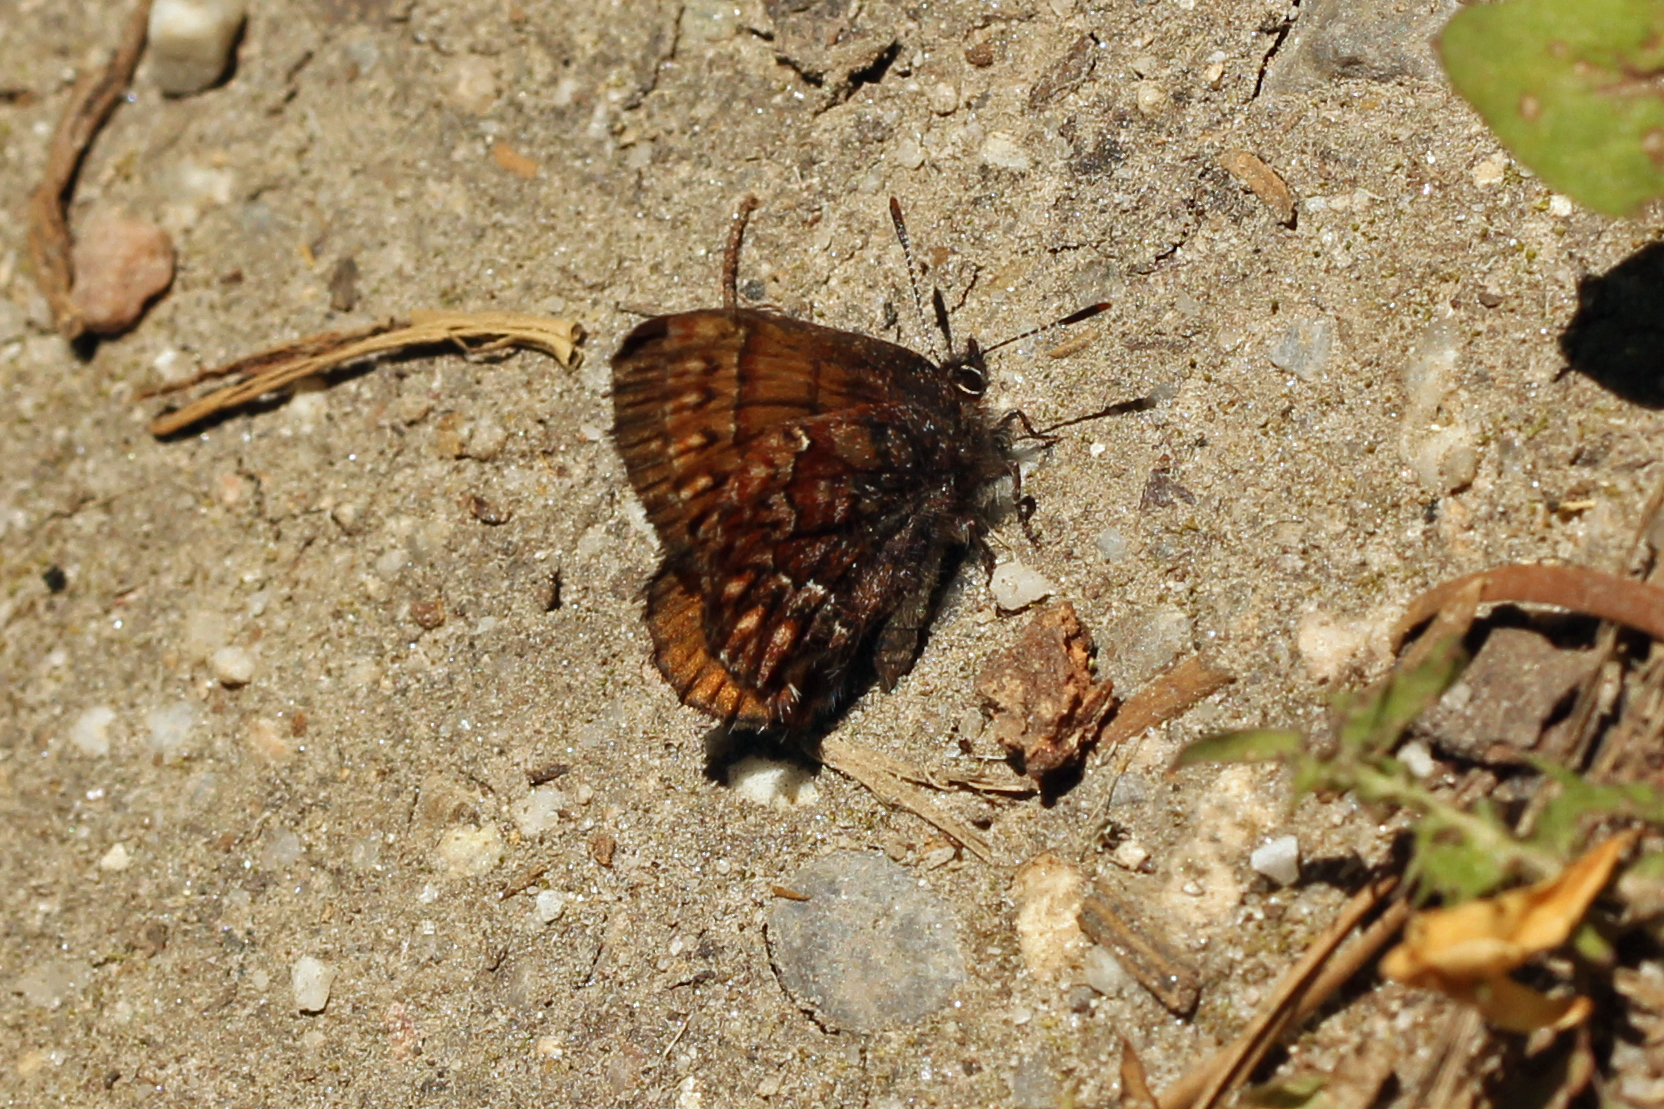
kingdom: Animalia
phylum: Arthropoda
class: Insecta
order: Lepidoptera
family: Lycaenidae
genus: Incisalia
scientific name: Incisalia eryphon
